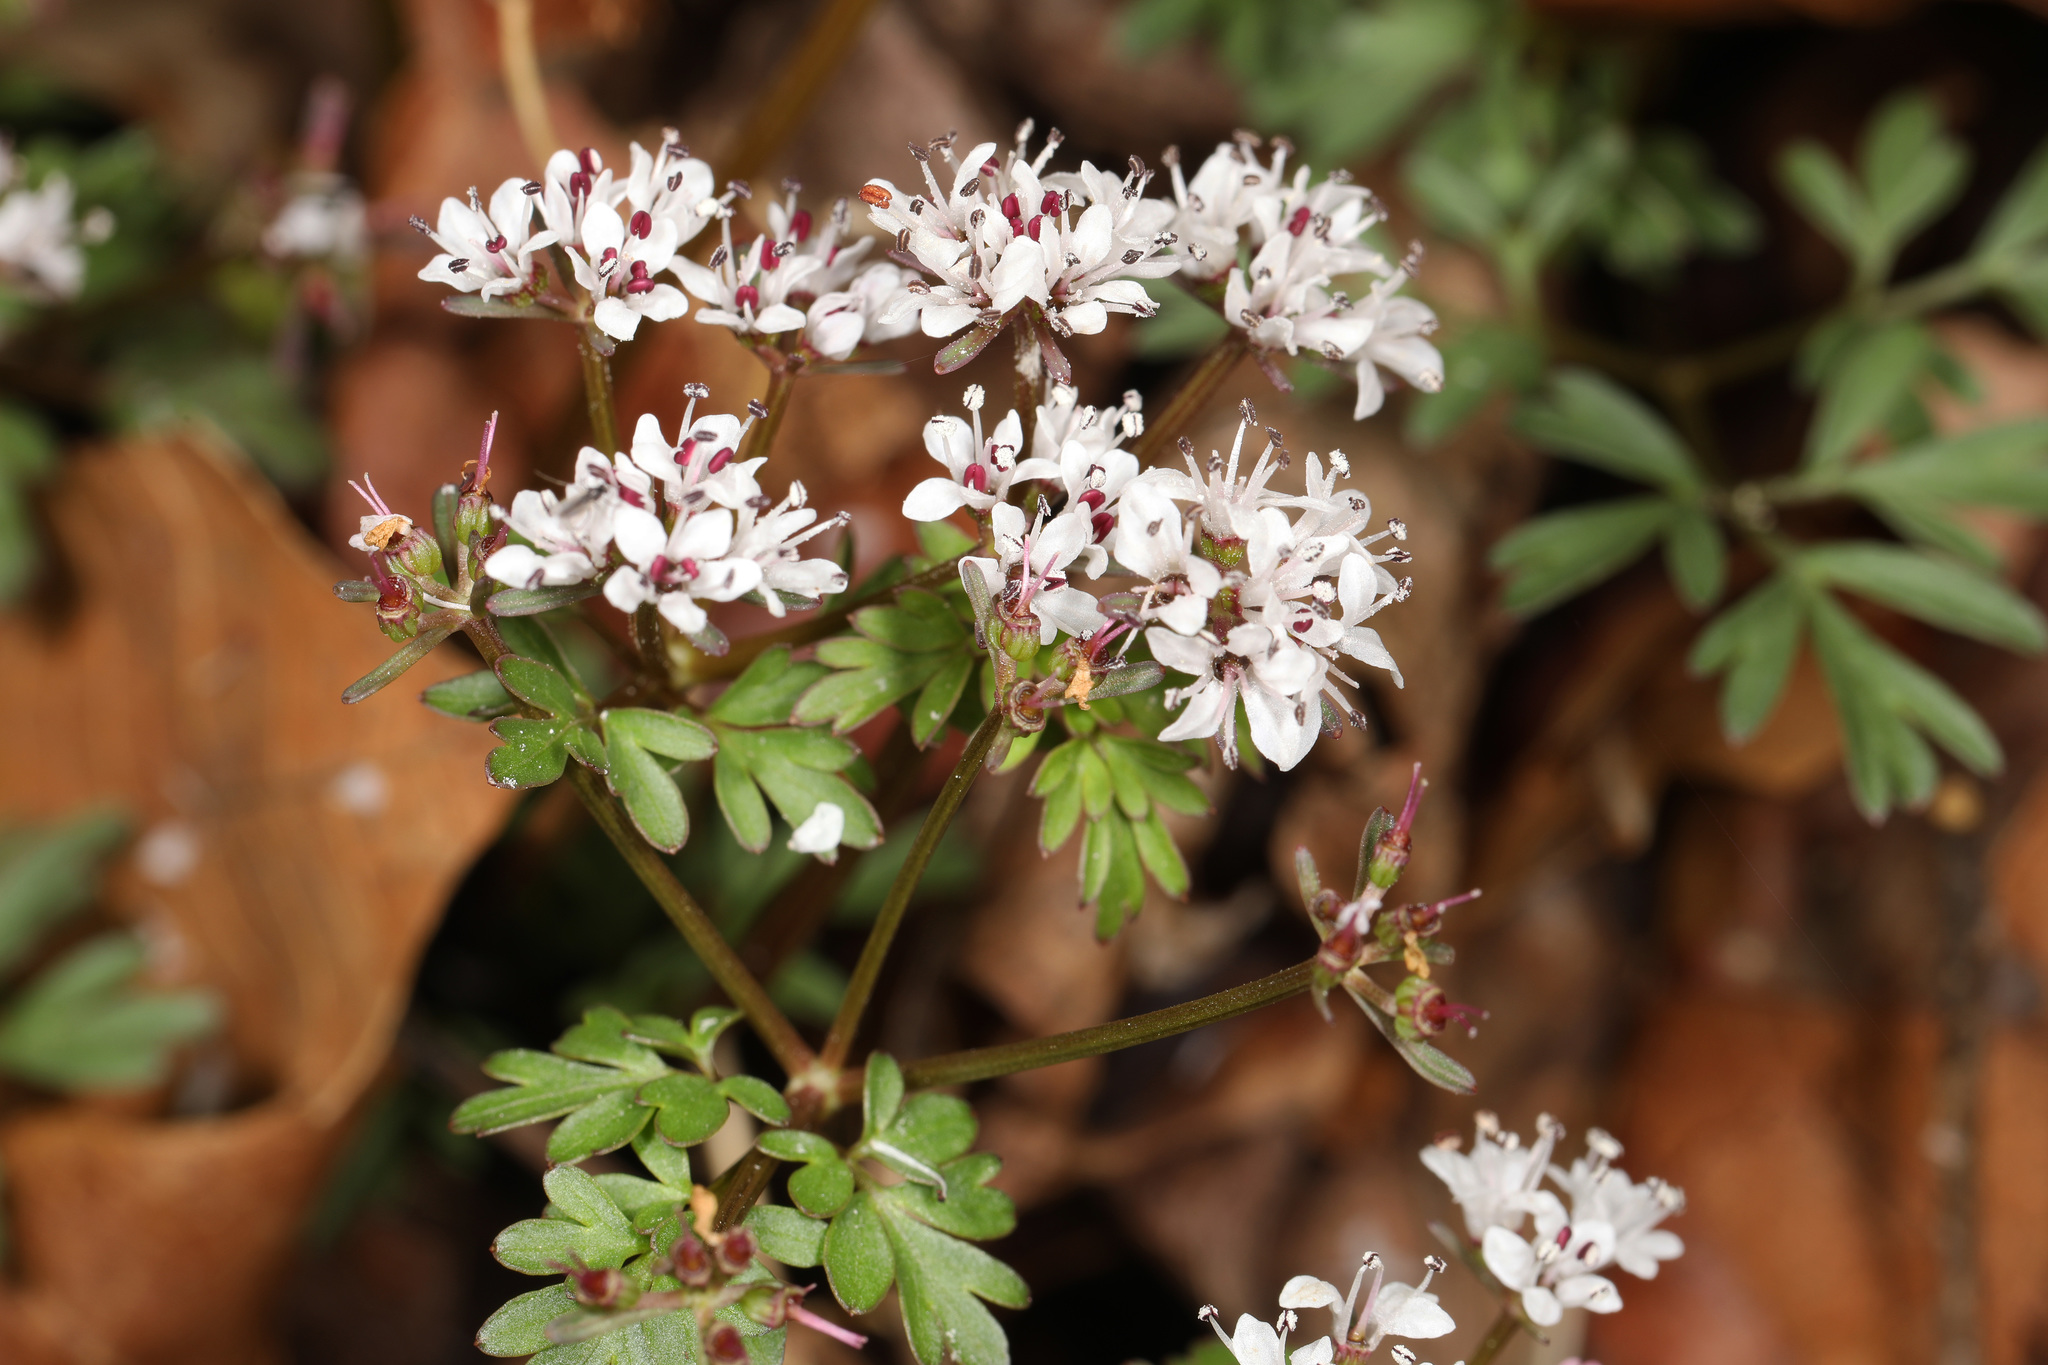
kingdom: Plantae
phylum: Tracheophyta
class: Magnoliopsida
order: Apiales
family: Apiaceae
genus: Erigenia
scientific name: Erigenia bulbosa
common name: Pepper-and-salt
